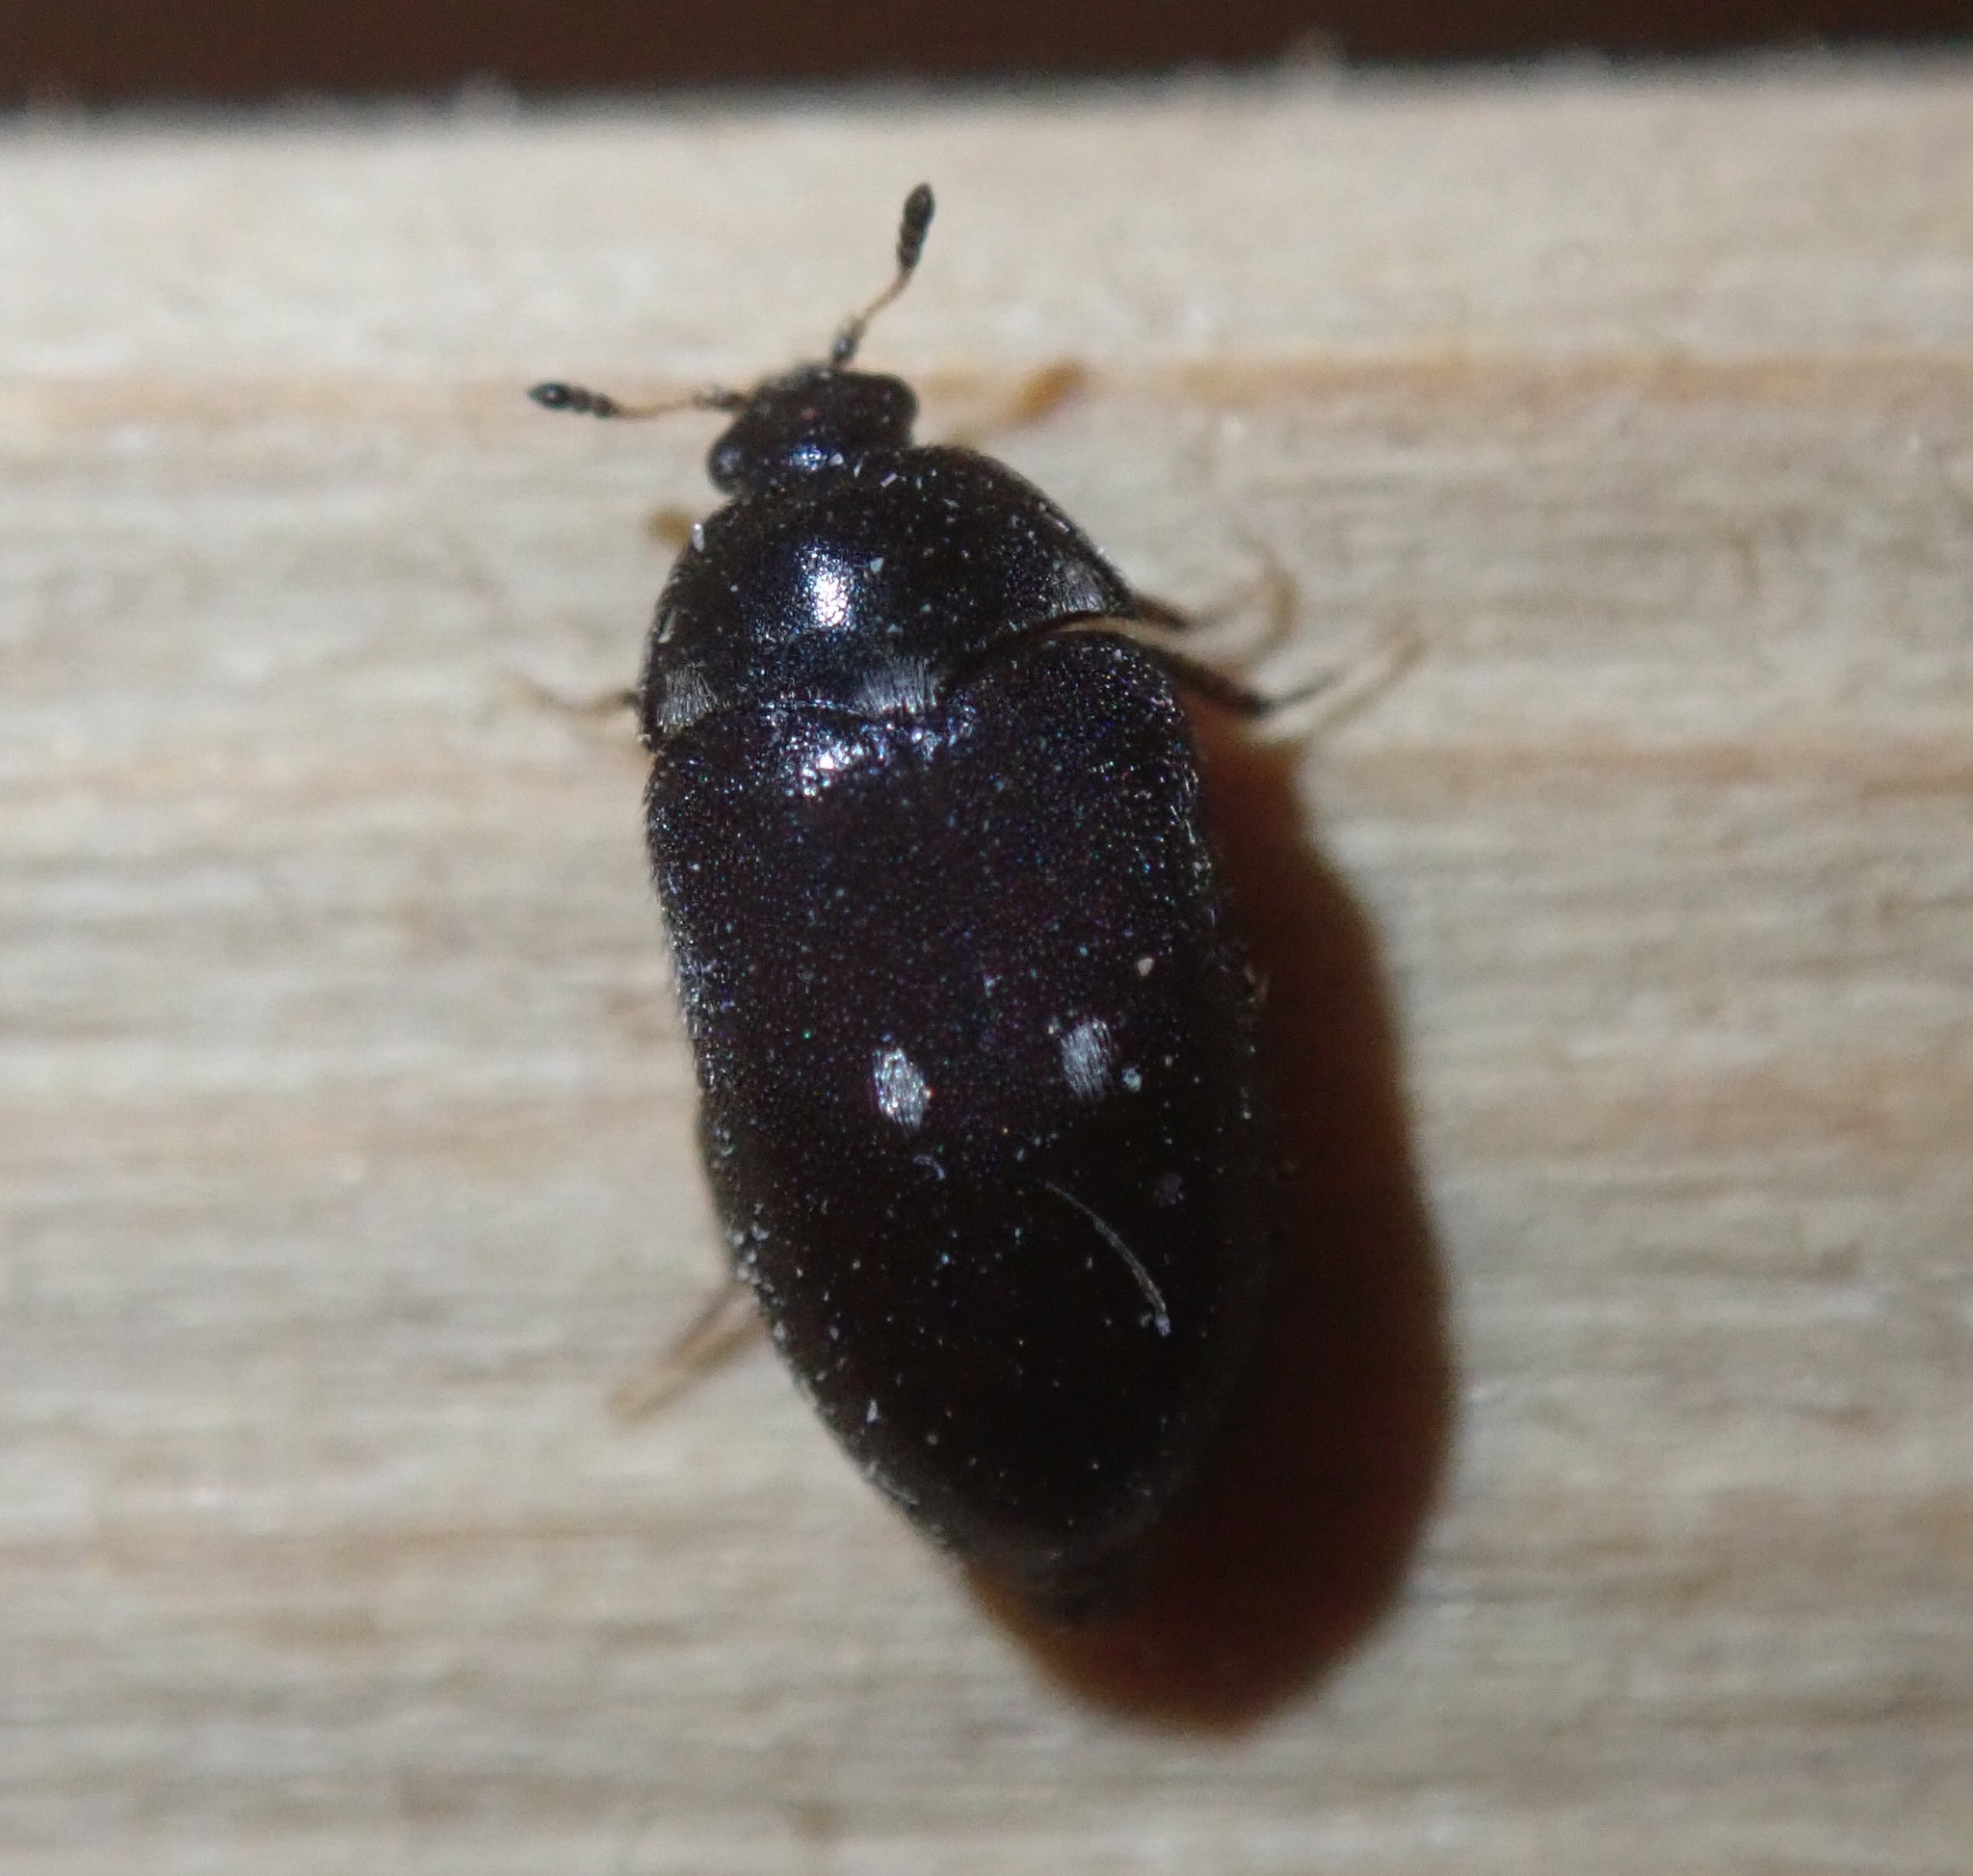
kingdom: Animalia
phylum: Arthropoda
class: Insecta
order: Coleoptera
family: Dermestidae
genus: Attagenus
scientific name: Attagenus pellio
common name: Two-spotted carpet beetle
